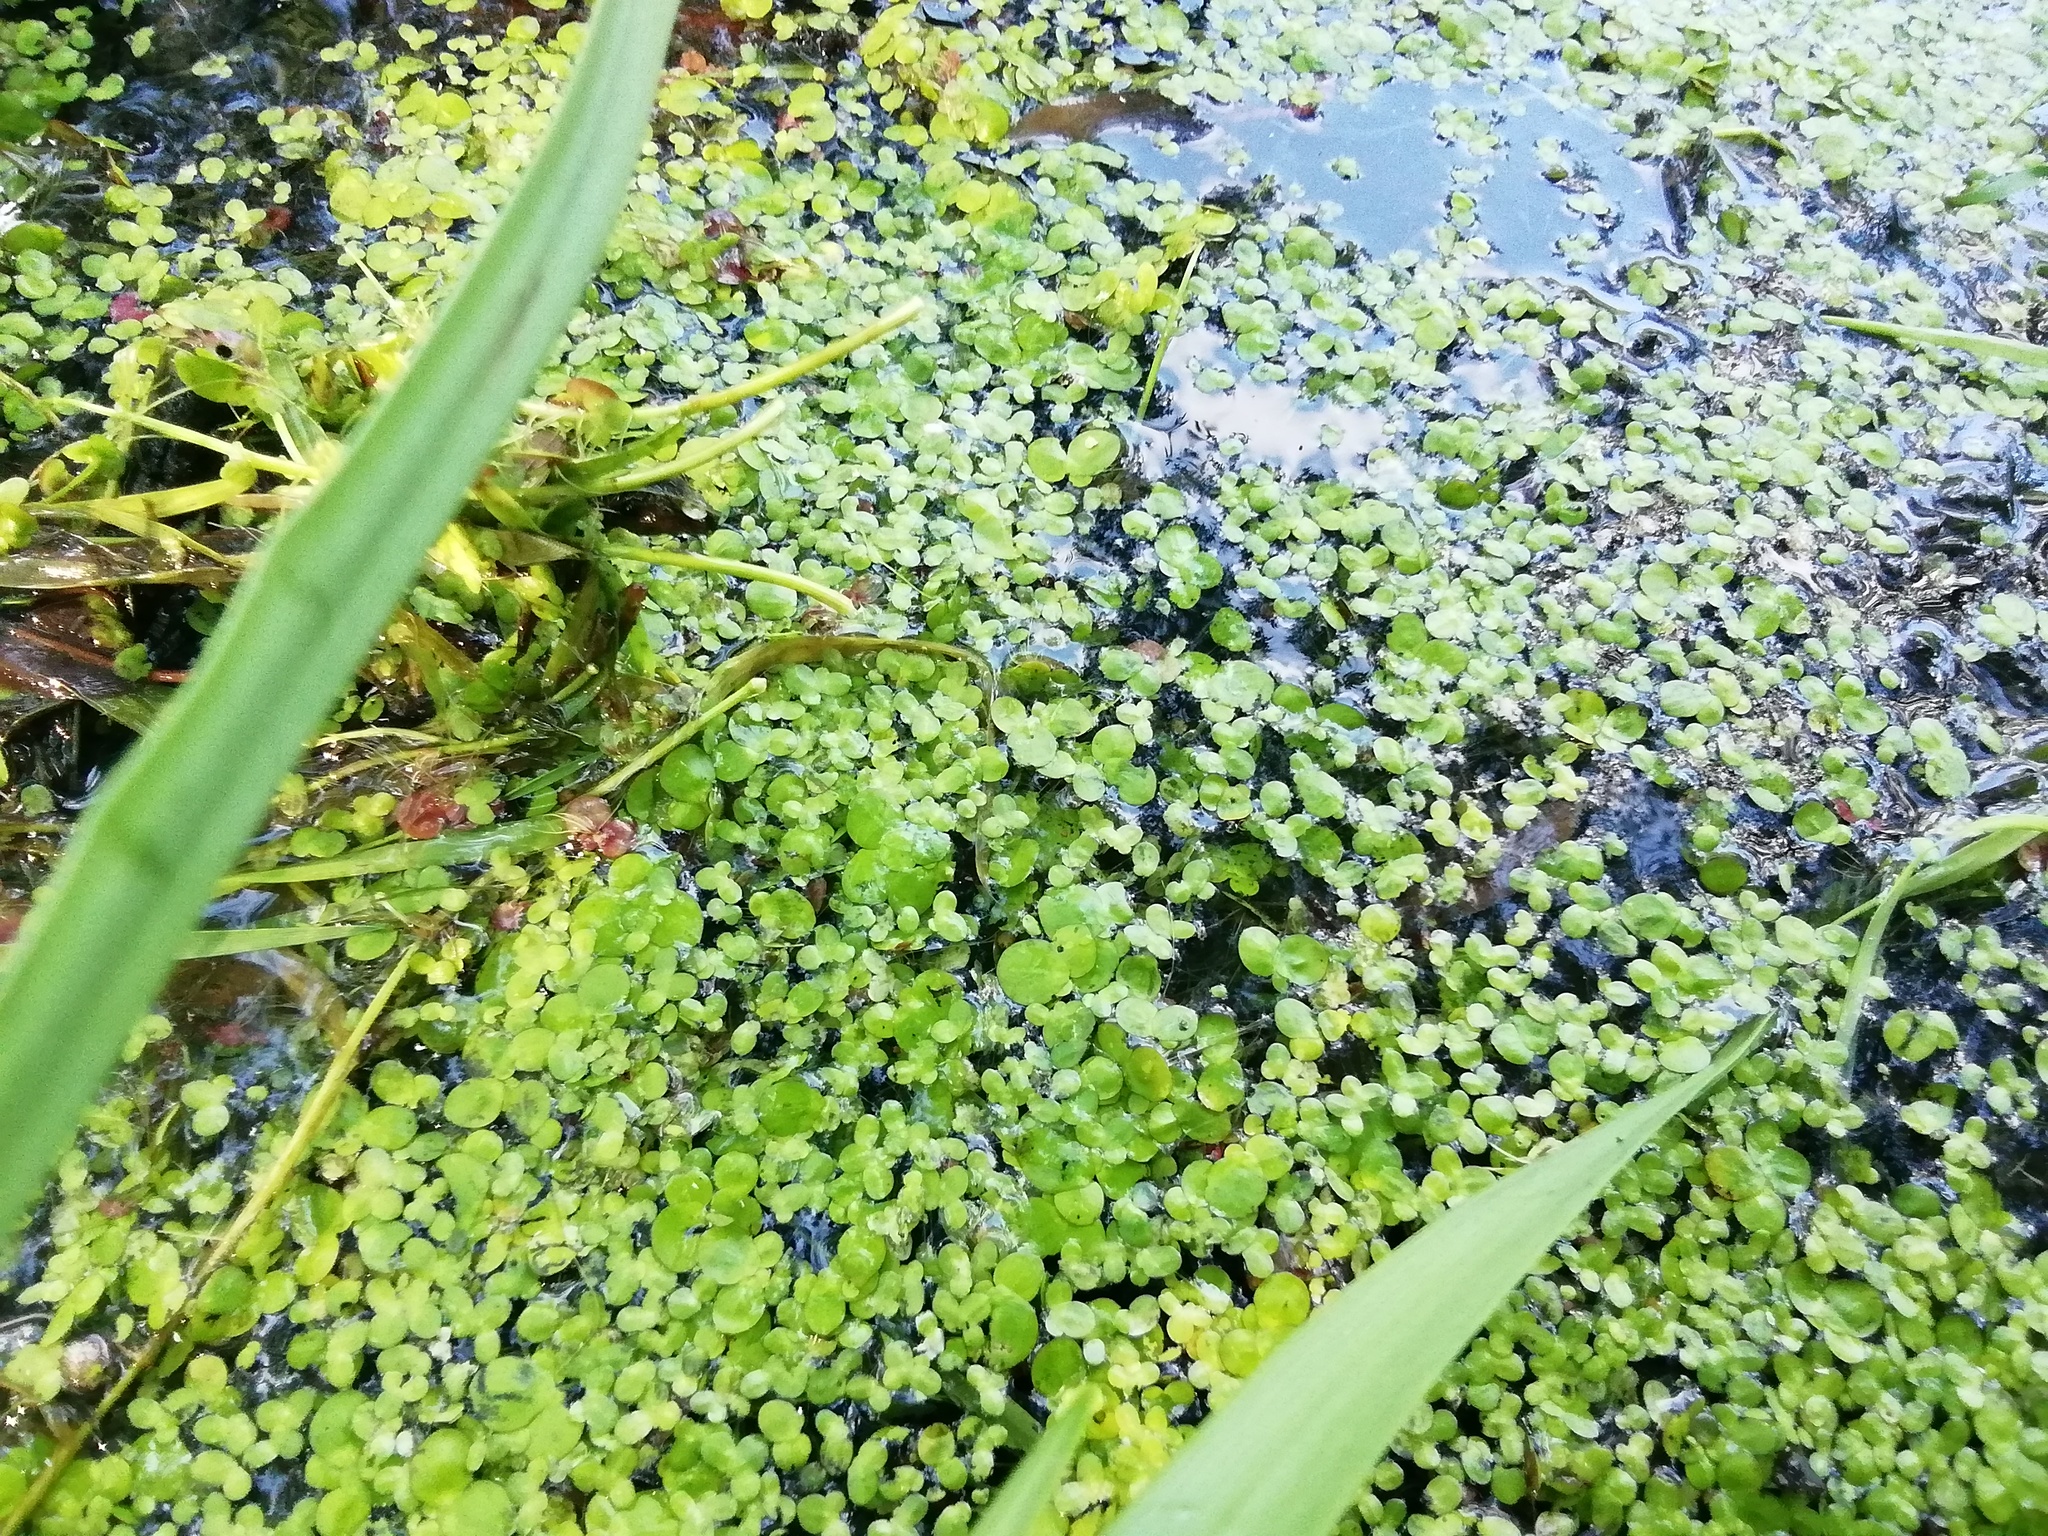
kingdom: Plantae
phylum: Tracheophyta
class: Liliopsida
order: Alismatales
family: Araceae
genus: Lemna
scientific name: Lemna minor
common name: Common duckweed
